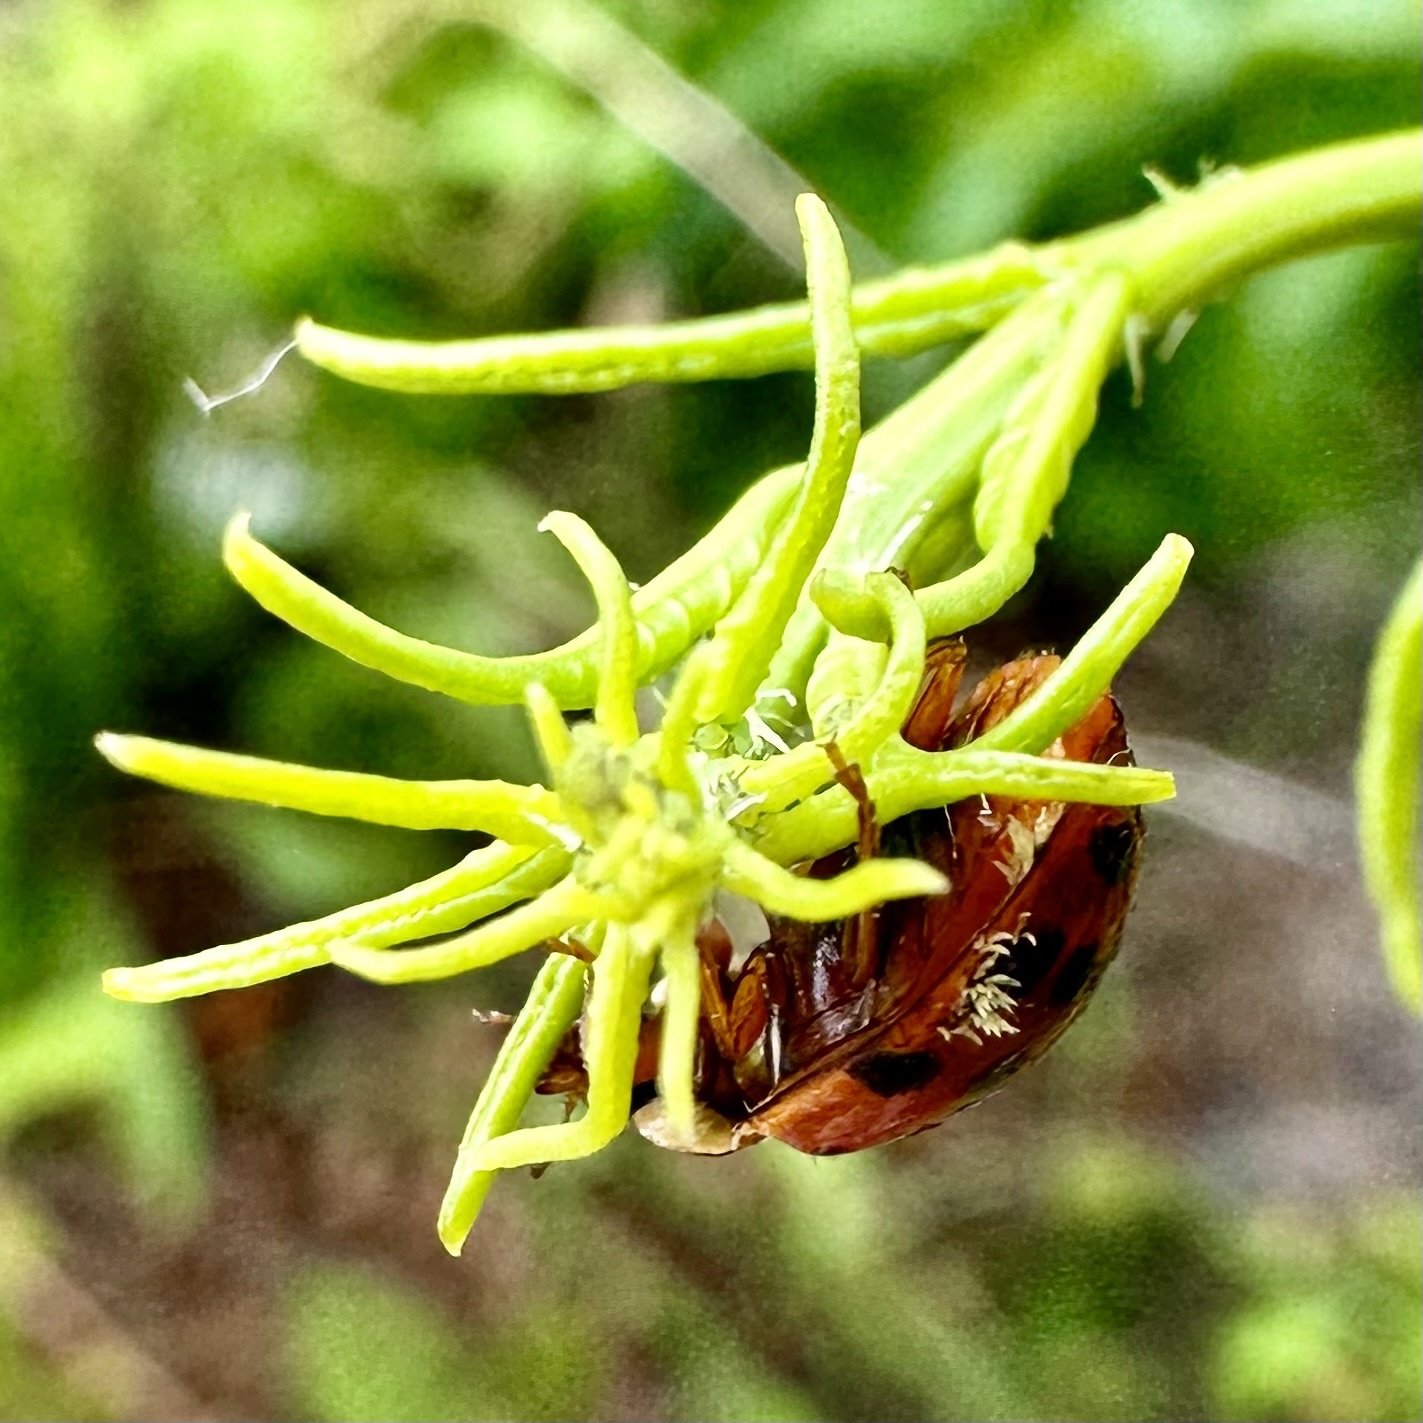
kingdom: Fungi
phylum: Ascomycota
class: Laboulbeniomycetes
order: Laboulbeniales
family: Laboulbeniaceae
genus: Hesperomyces
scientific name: Hesperomyces harmoniae
